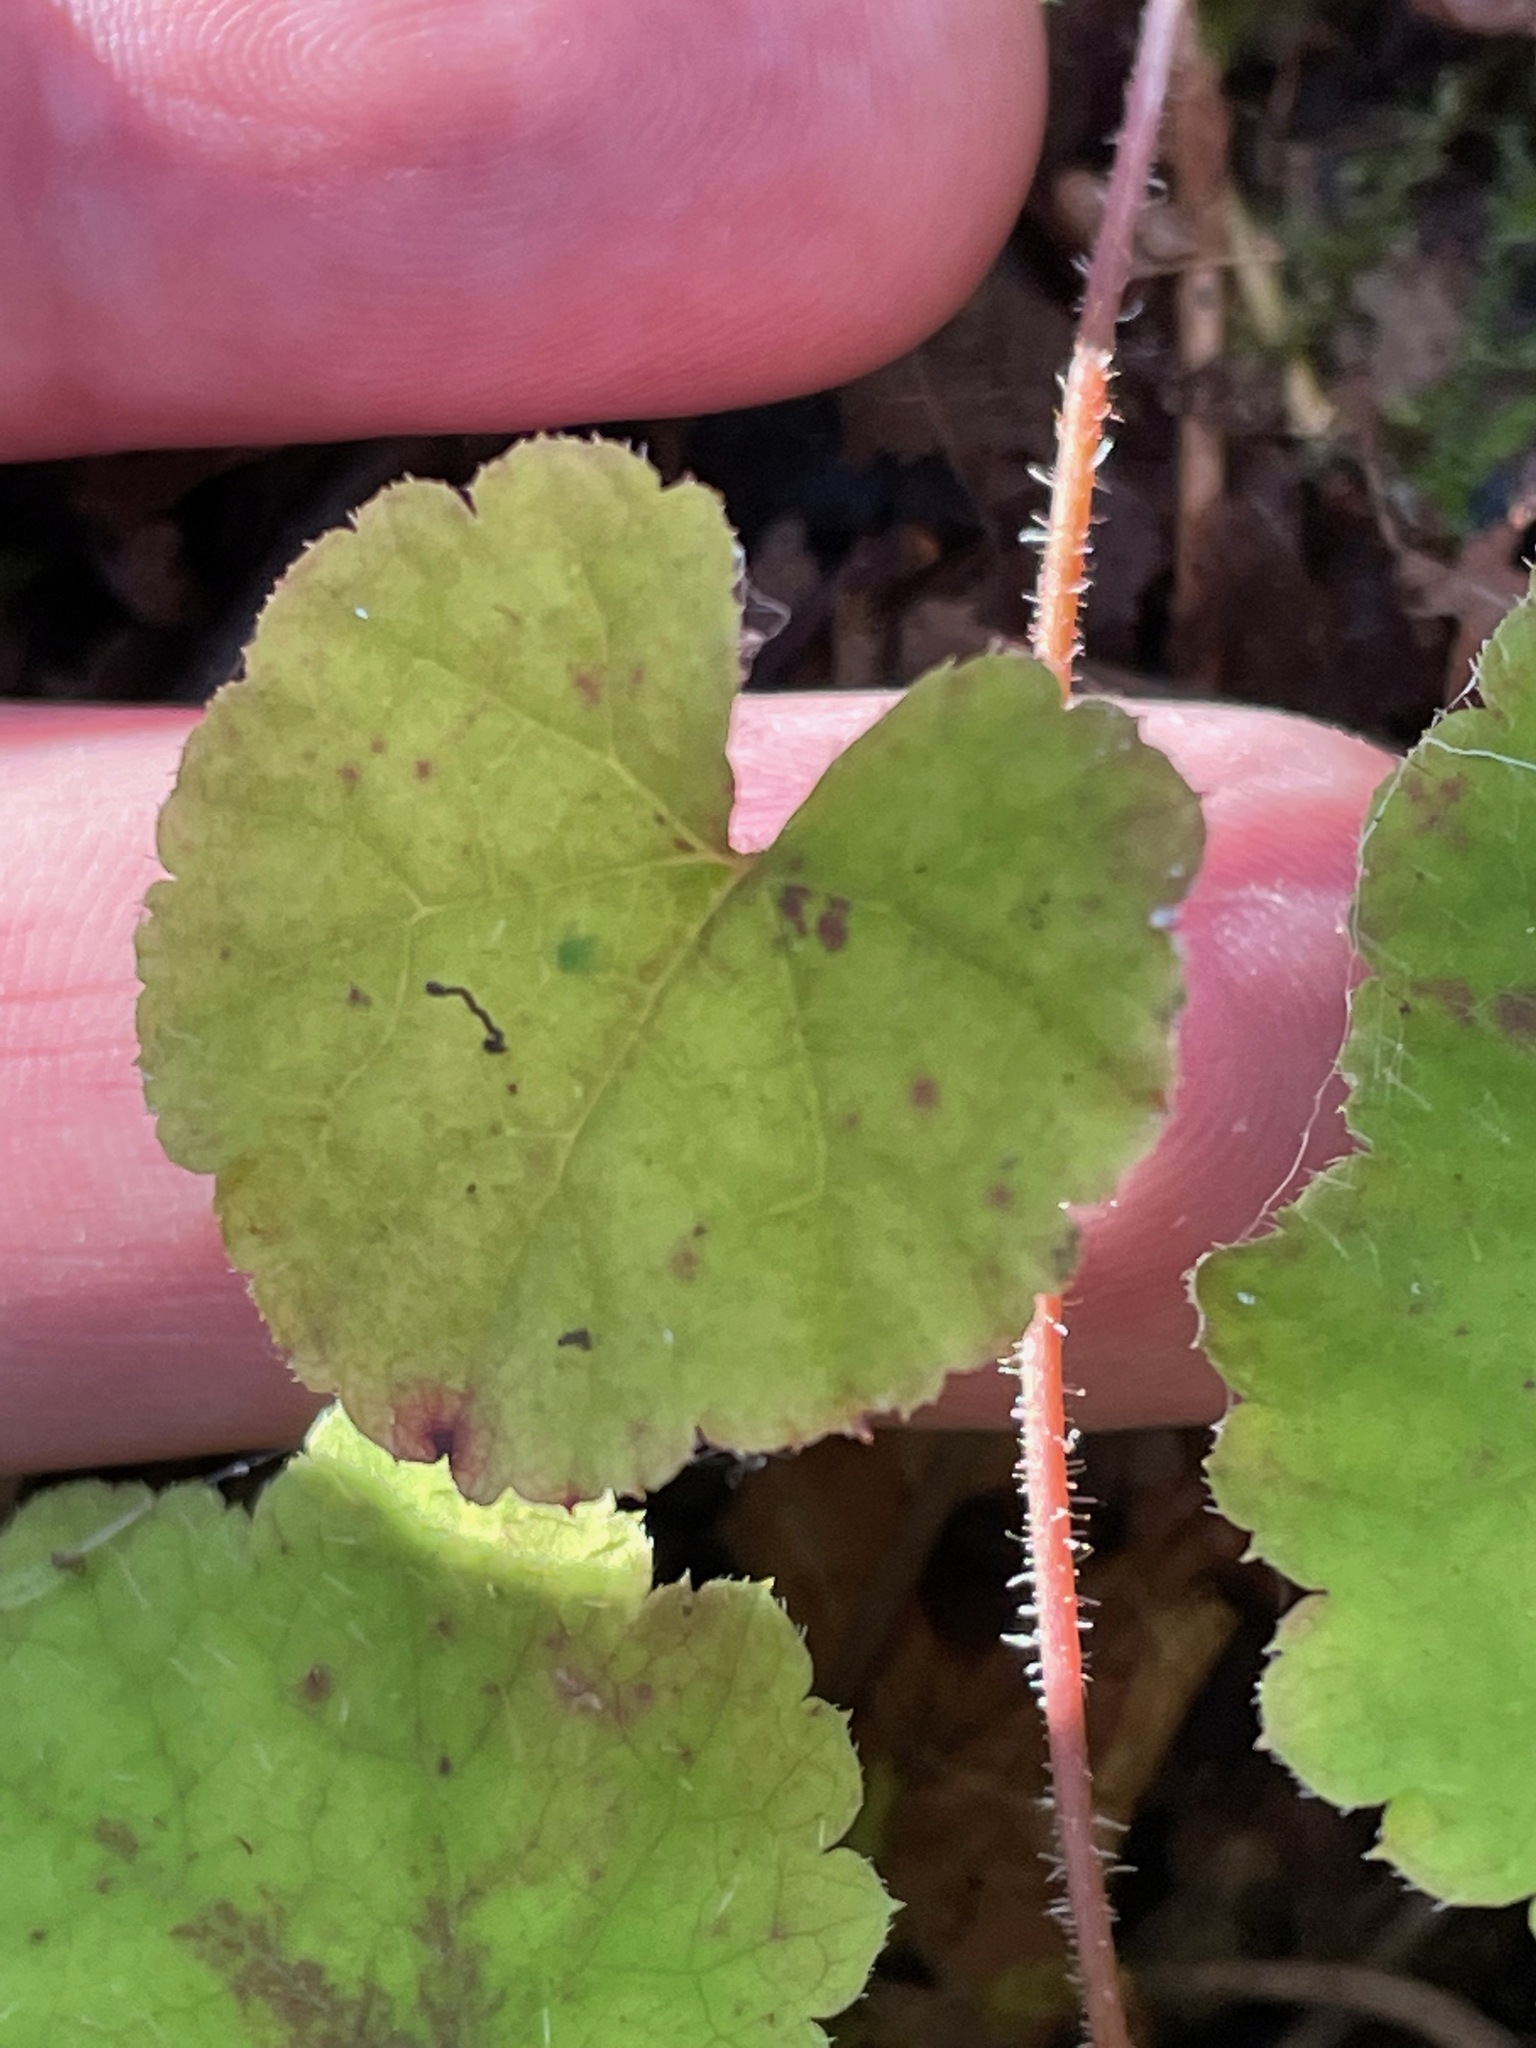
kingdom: Plantae
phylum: Tracheophyta
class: Magnoliopsida
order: Saxifragales
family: Saxifragaceae
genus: Tiarella
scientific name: Tiarella stolonifera
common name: Stoloniferous foamflower
